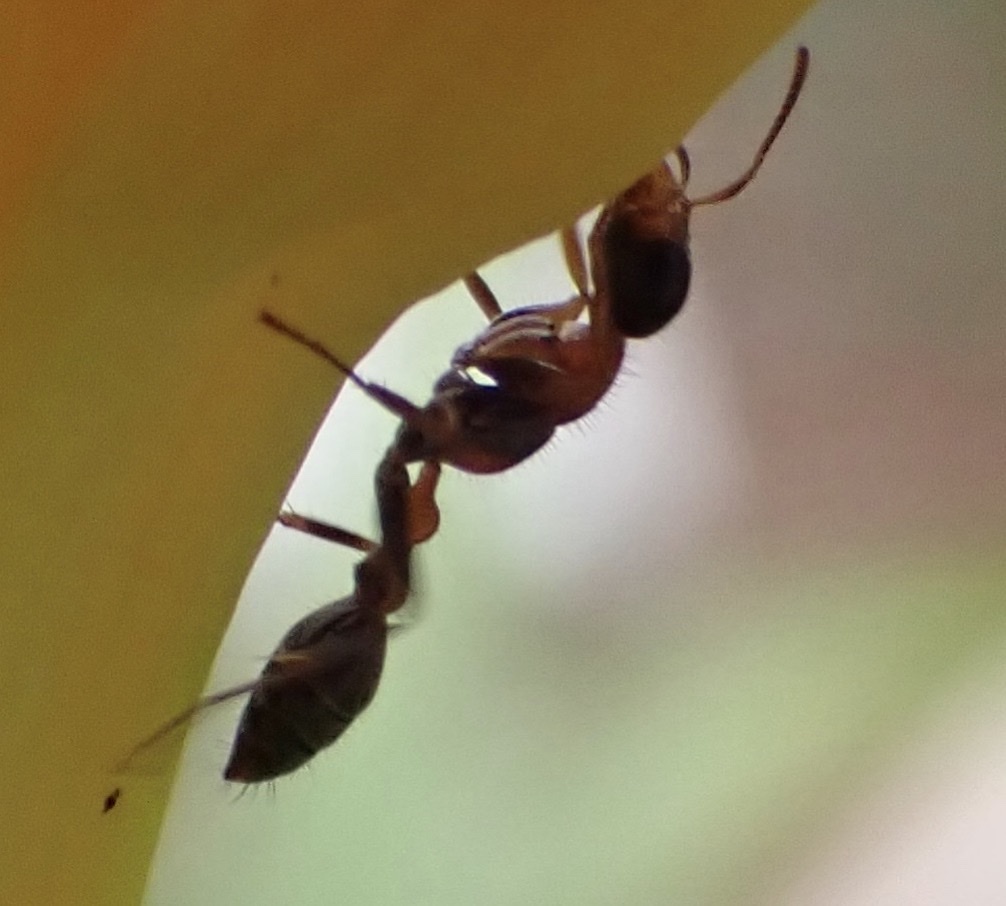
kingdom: Animalia
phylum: Arthropoda
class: Insecta
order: Hymenoptera
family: Formicidae
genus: Pseudomyrmex
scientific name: Pseudomyrmex gracilis
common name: Graceful twig ant
